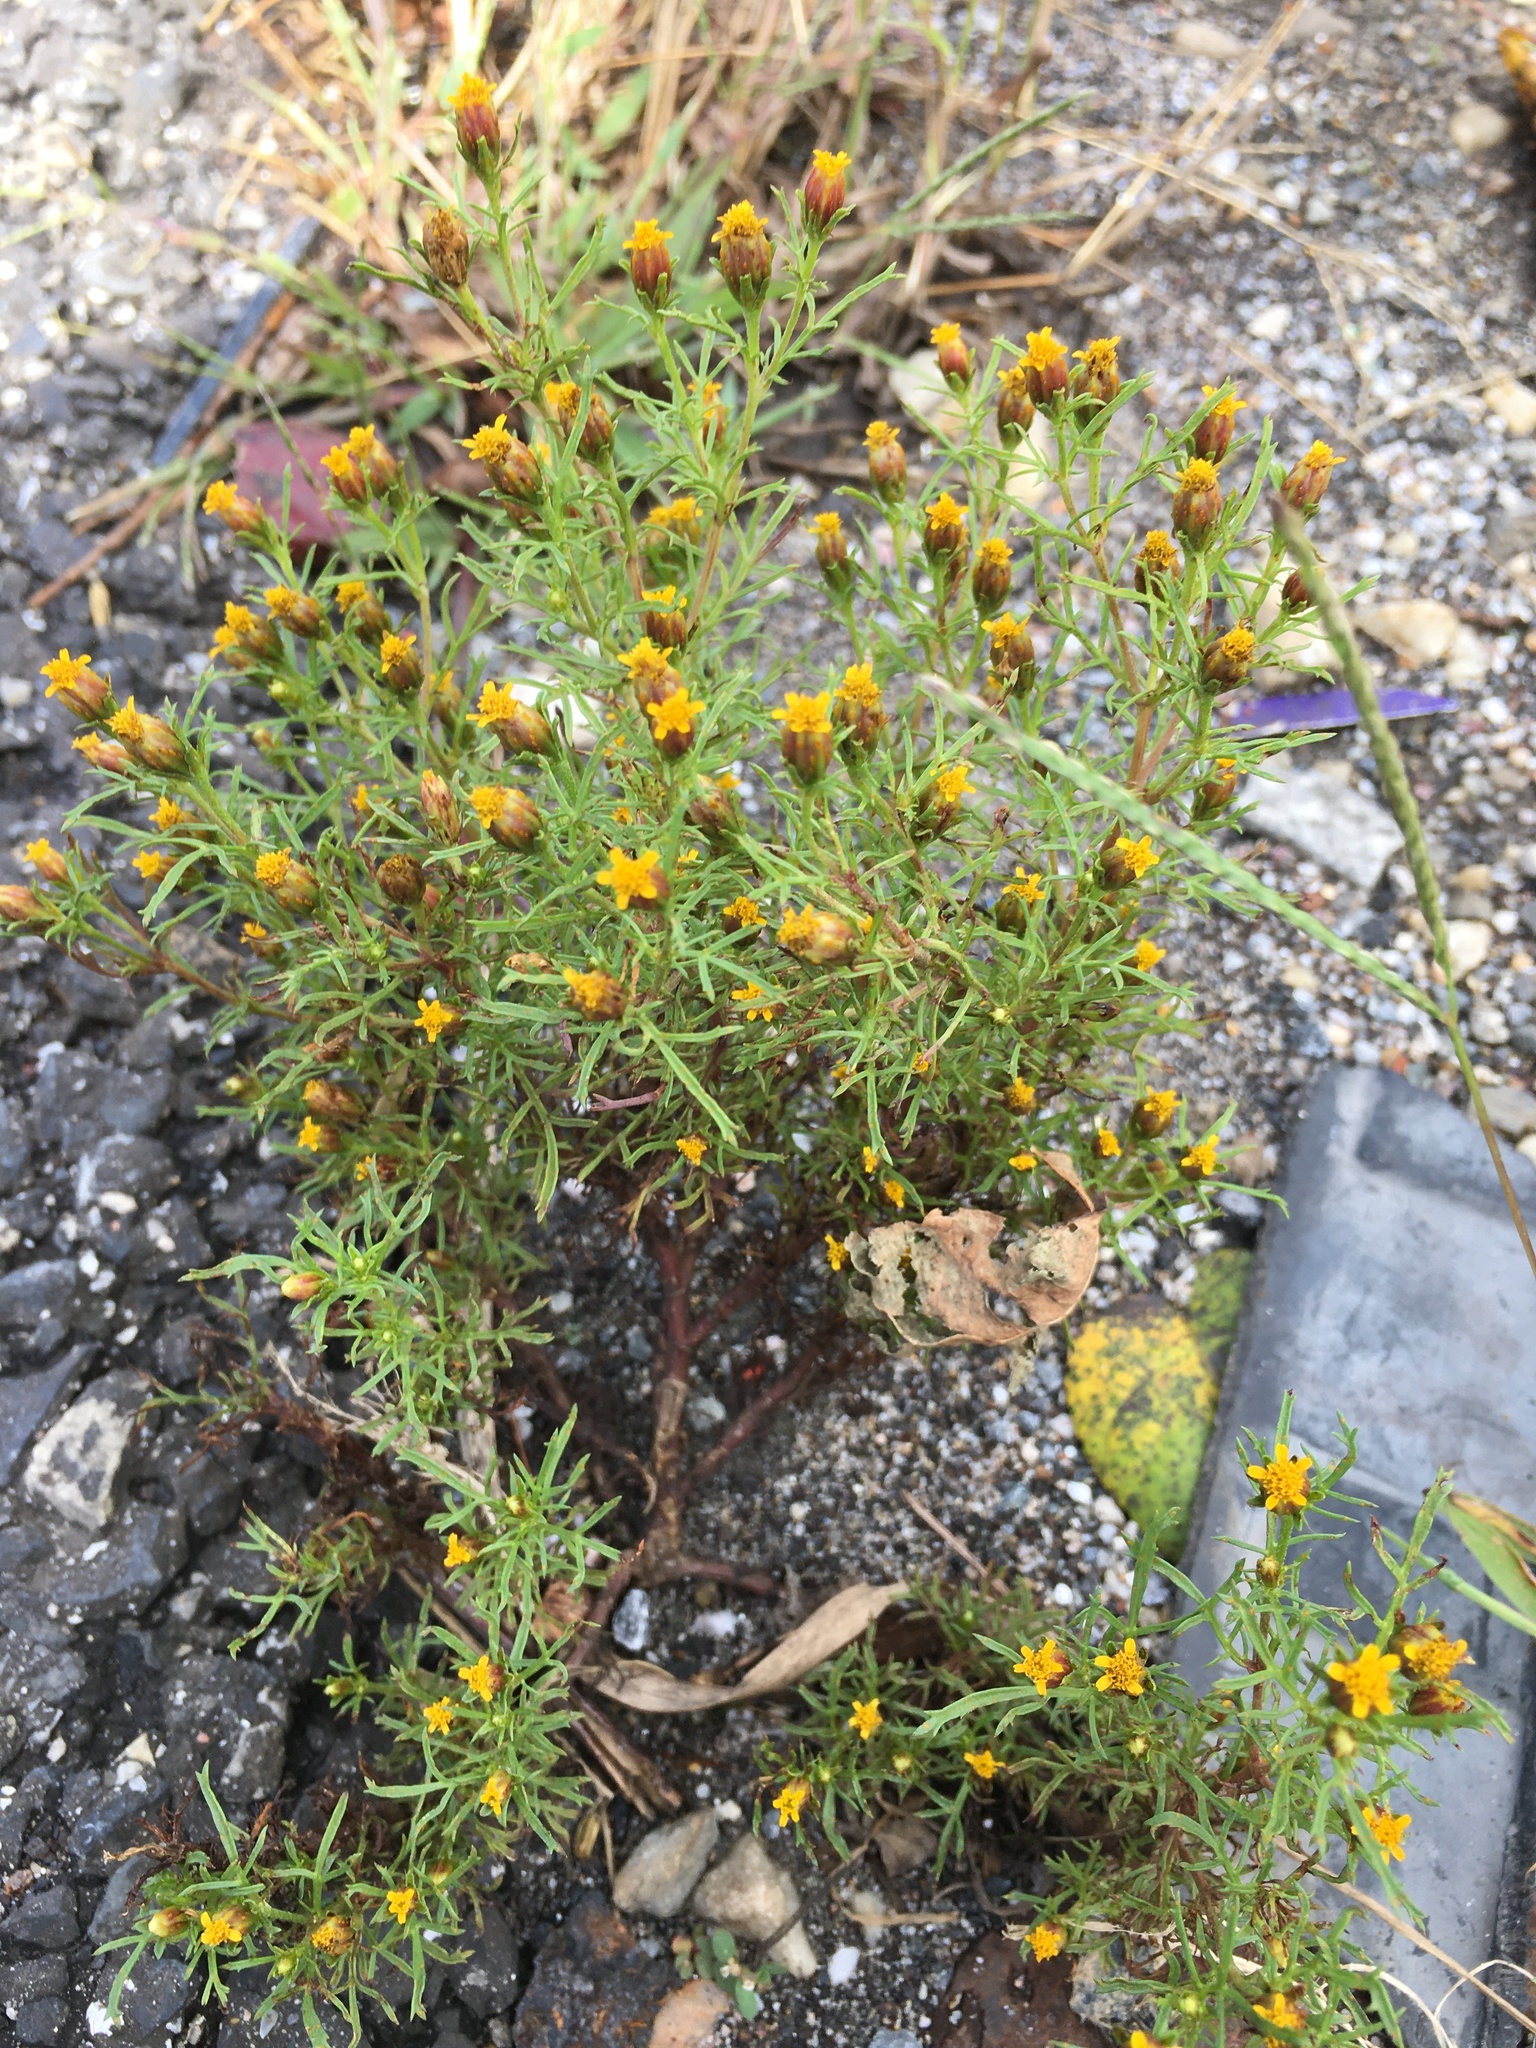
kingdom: Plantae
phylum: Tracheophyta
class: Magnoliopsida
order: Asterales
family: Asteraceae
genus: Dyssodia
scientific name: Dyssodia papposa
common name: Dogweed
